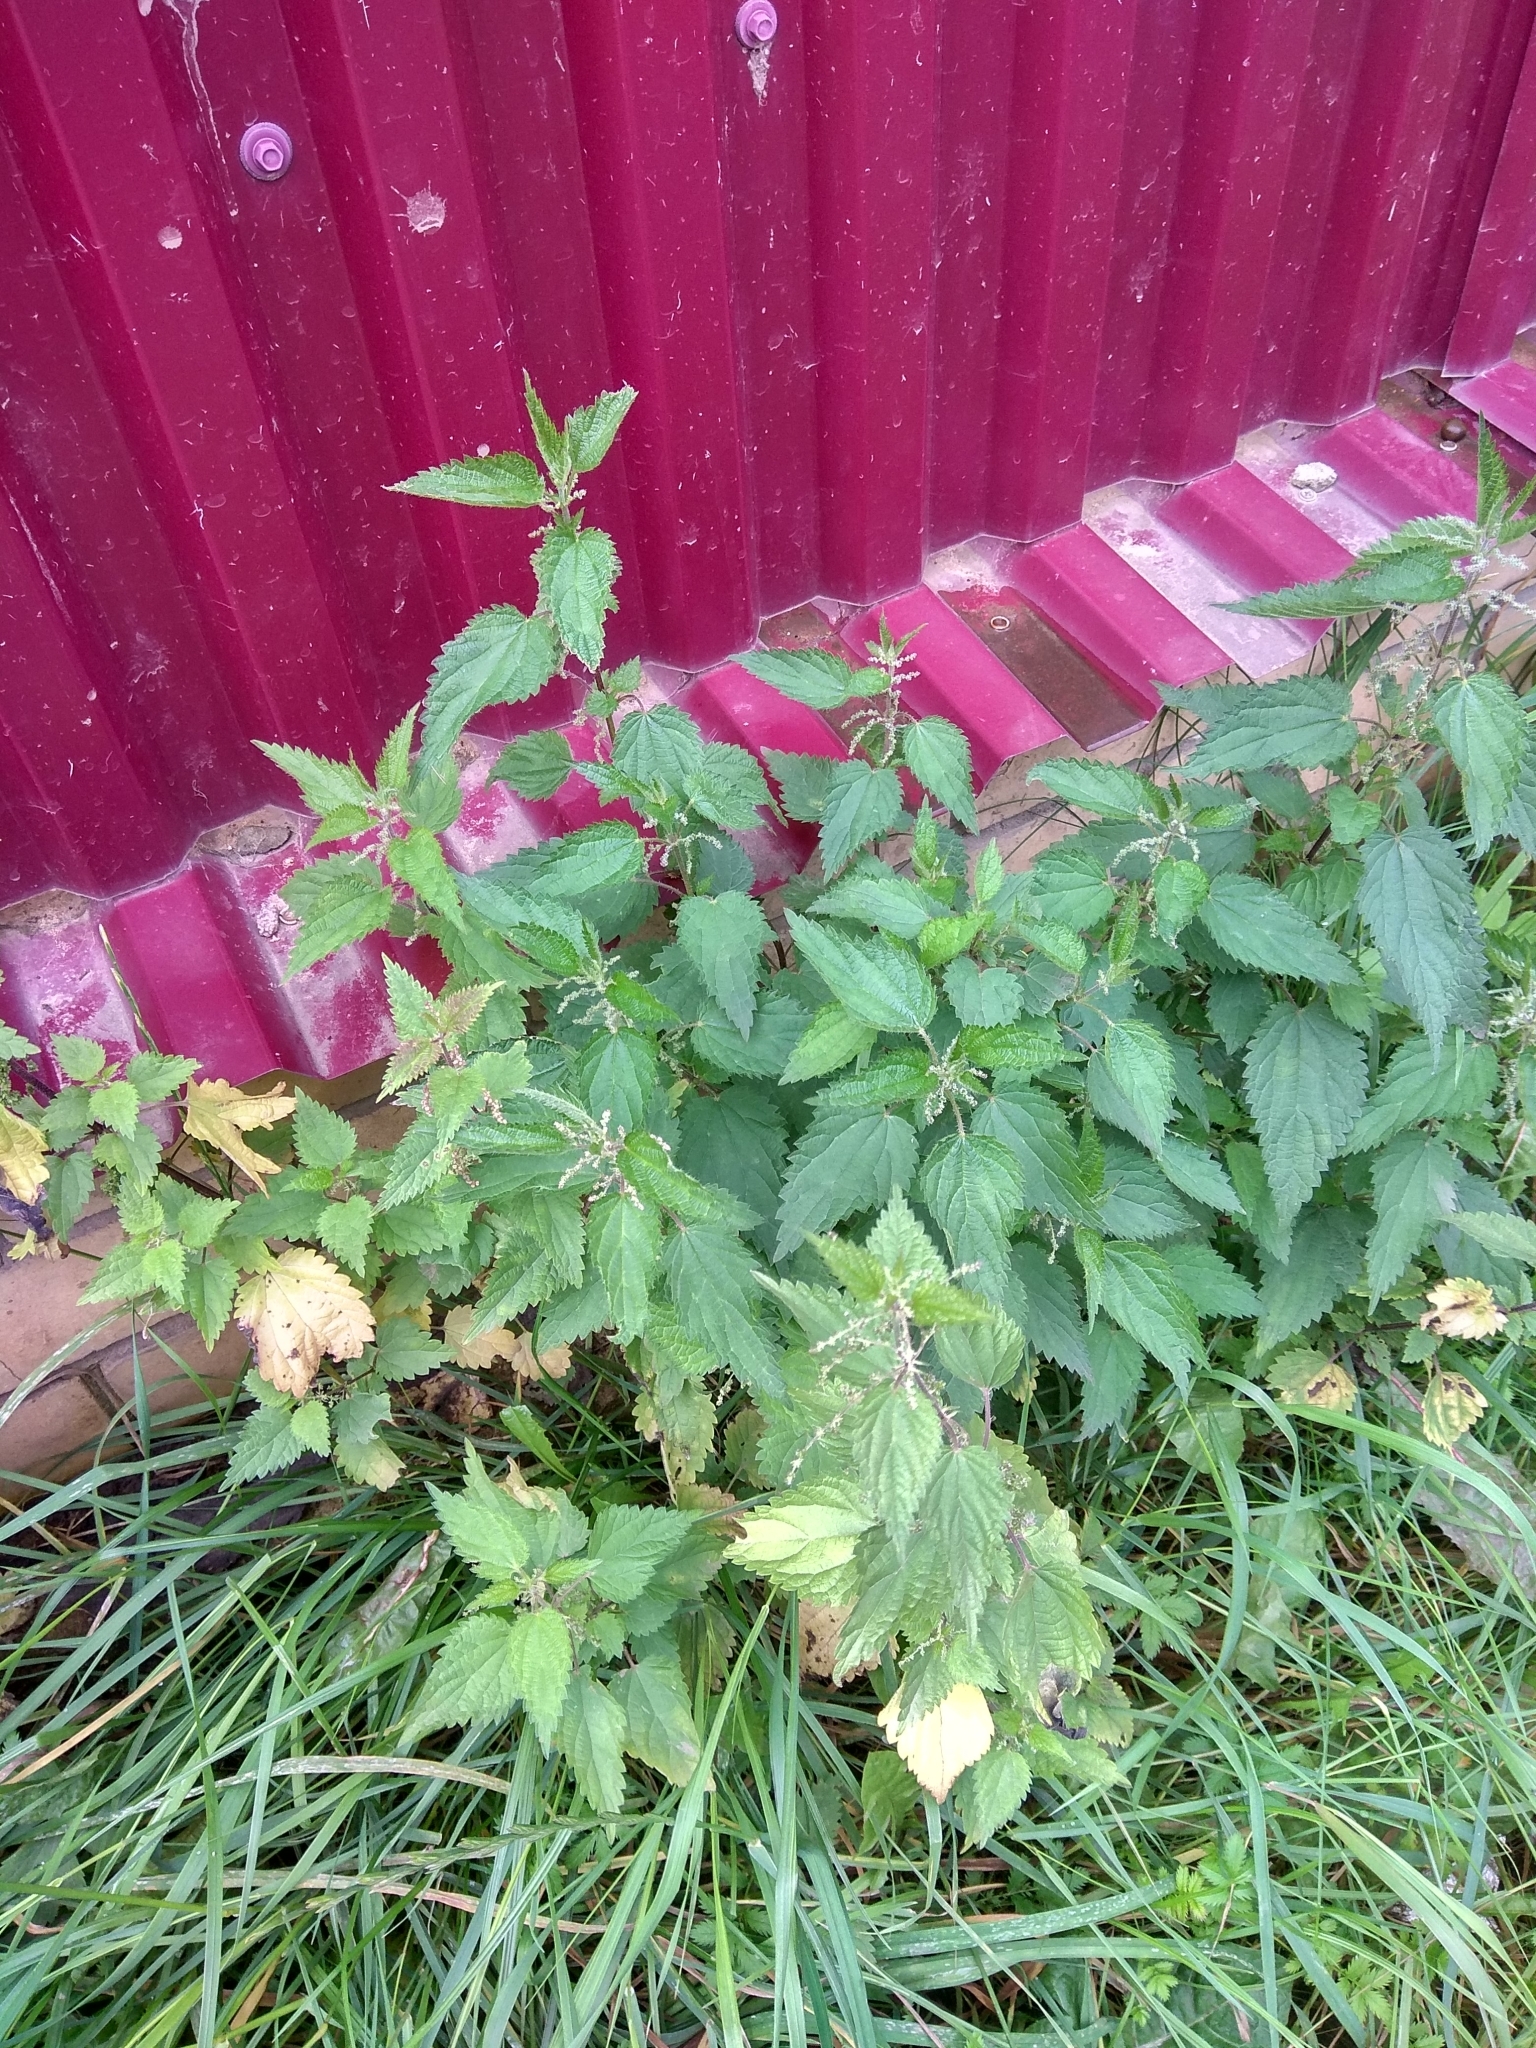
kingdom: Plantae
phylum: Tracheophyta
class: Magnoliopsida
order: Rosales
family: Urticaceae
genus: Urtica
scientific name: Urtica dioica
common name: Common nettle
